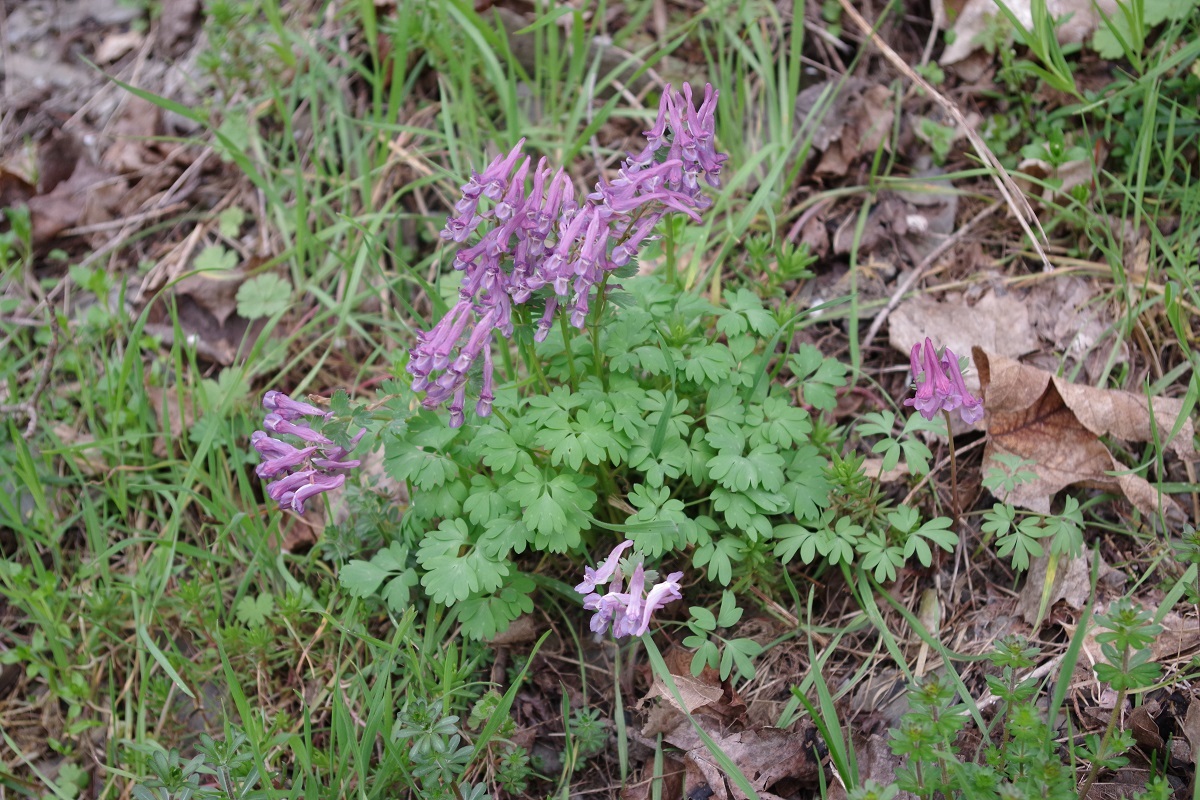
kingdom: Plantae
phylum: Tracheophyta
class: Magnoliopsida
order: Ranunculales
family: Papaveraceae
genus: Corydalis
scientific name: Corydalis solida
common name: Bird-in-a-bush
